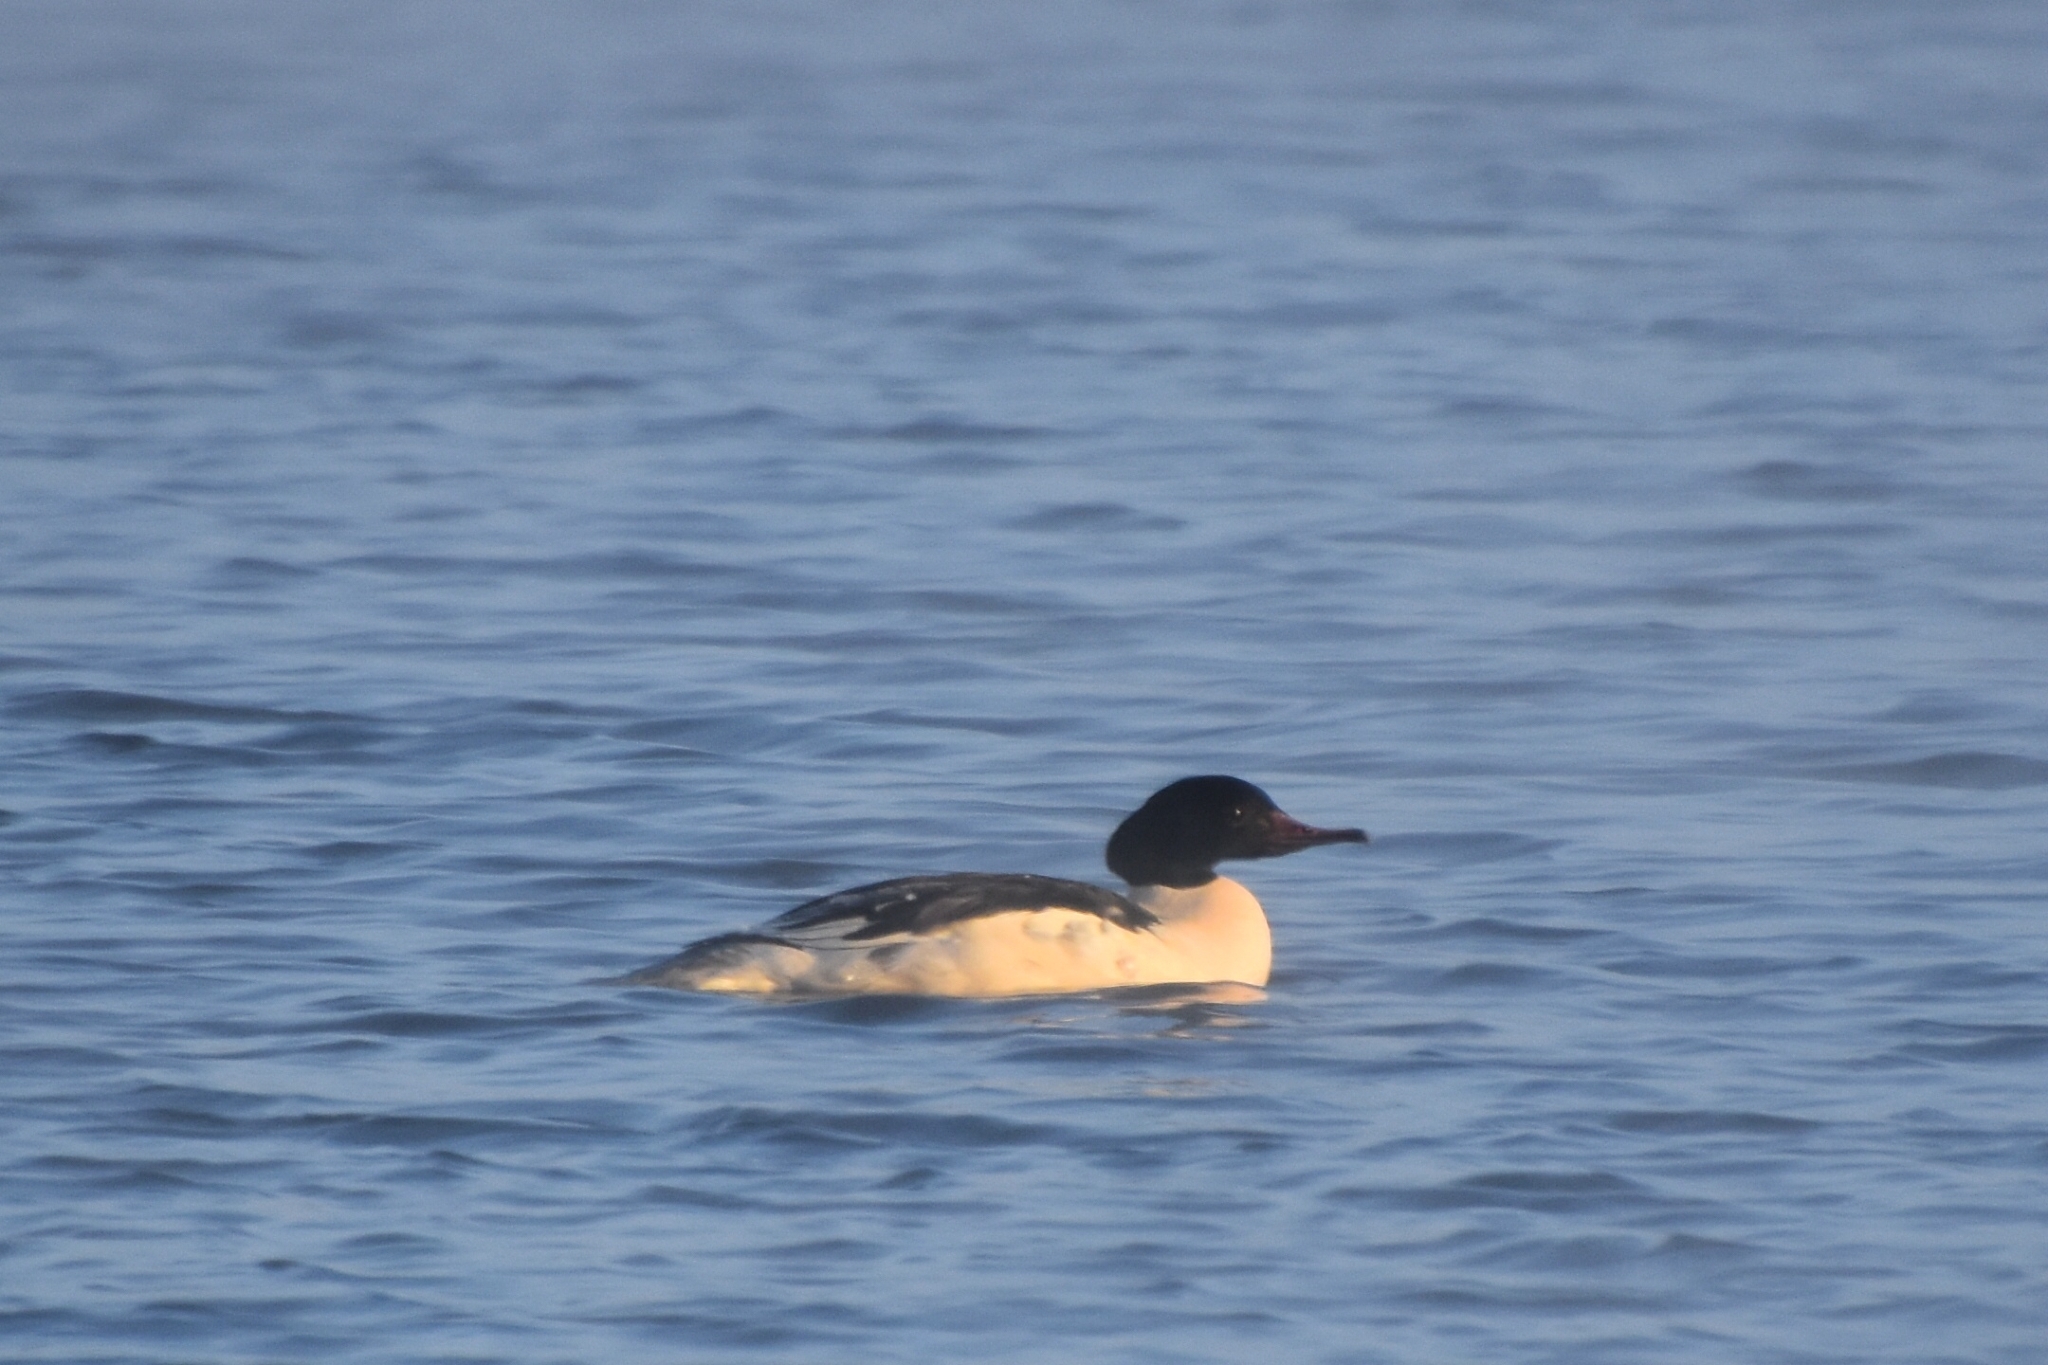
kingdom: Animalia
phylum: Chordata
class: Aves
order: Anseriformes
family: Anatidae
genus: Mergus
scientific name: Mergus merganser
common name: Common merganser
